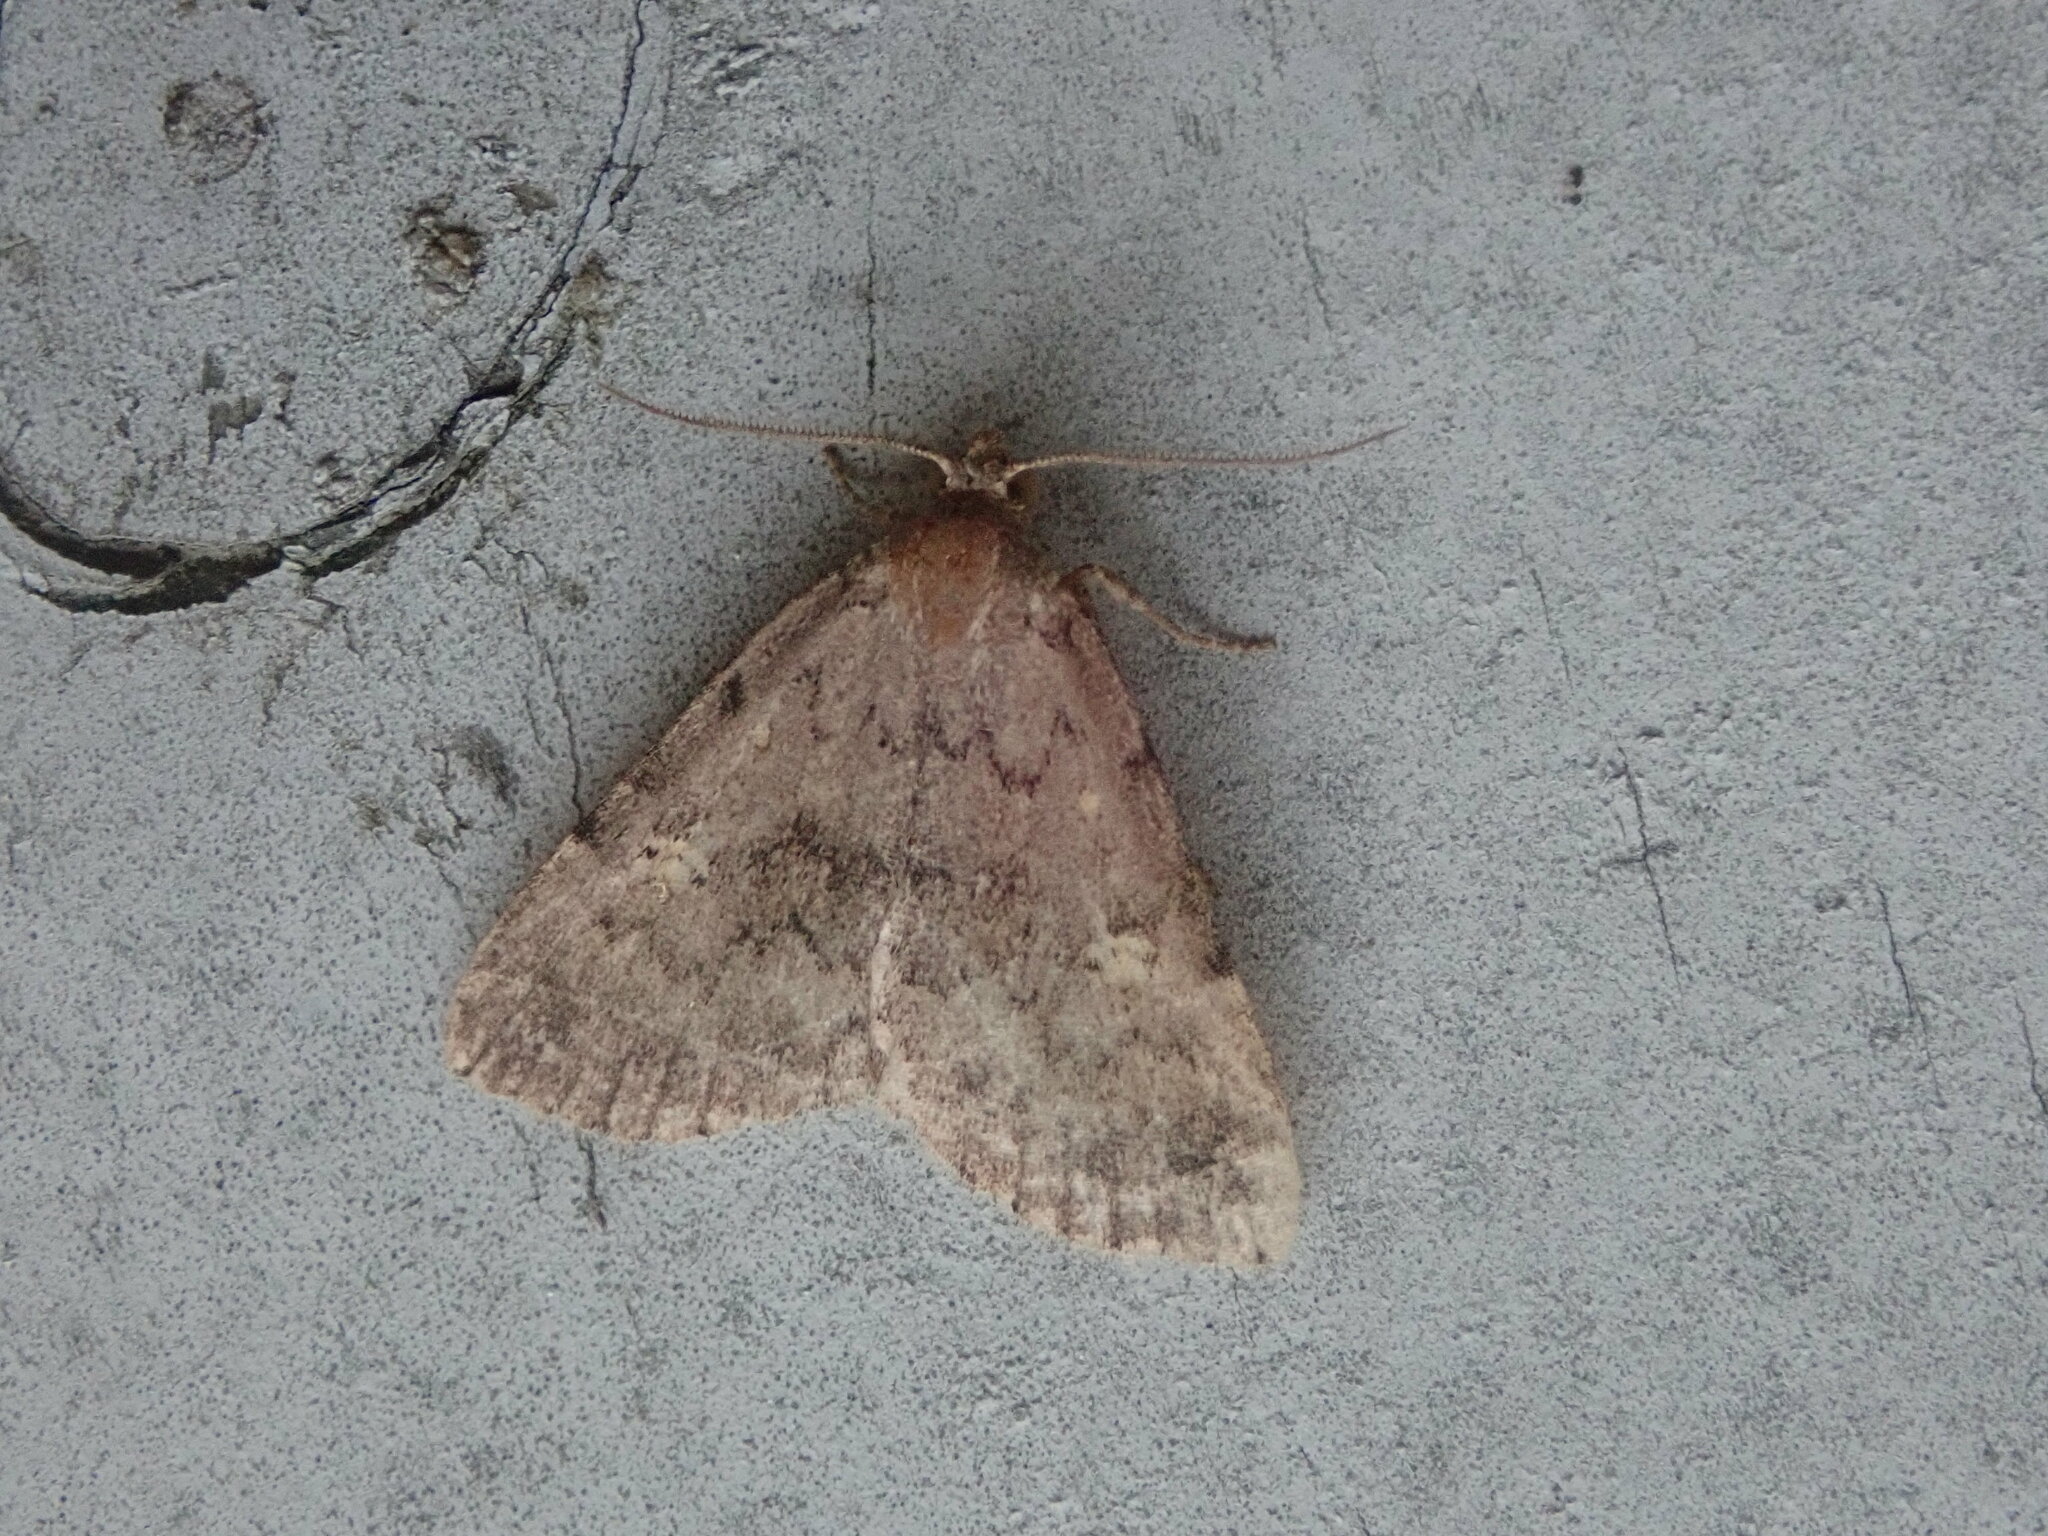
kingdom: Animalia
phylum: Arthropoda
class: Insecta
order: Lepidoptera
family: Erebidae
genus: Idia
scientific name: Idia aemula
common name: Common idia moth
